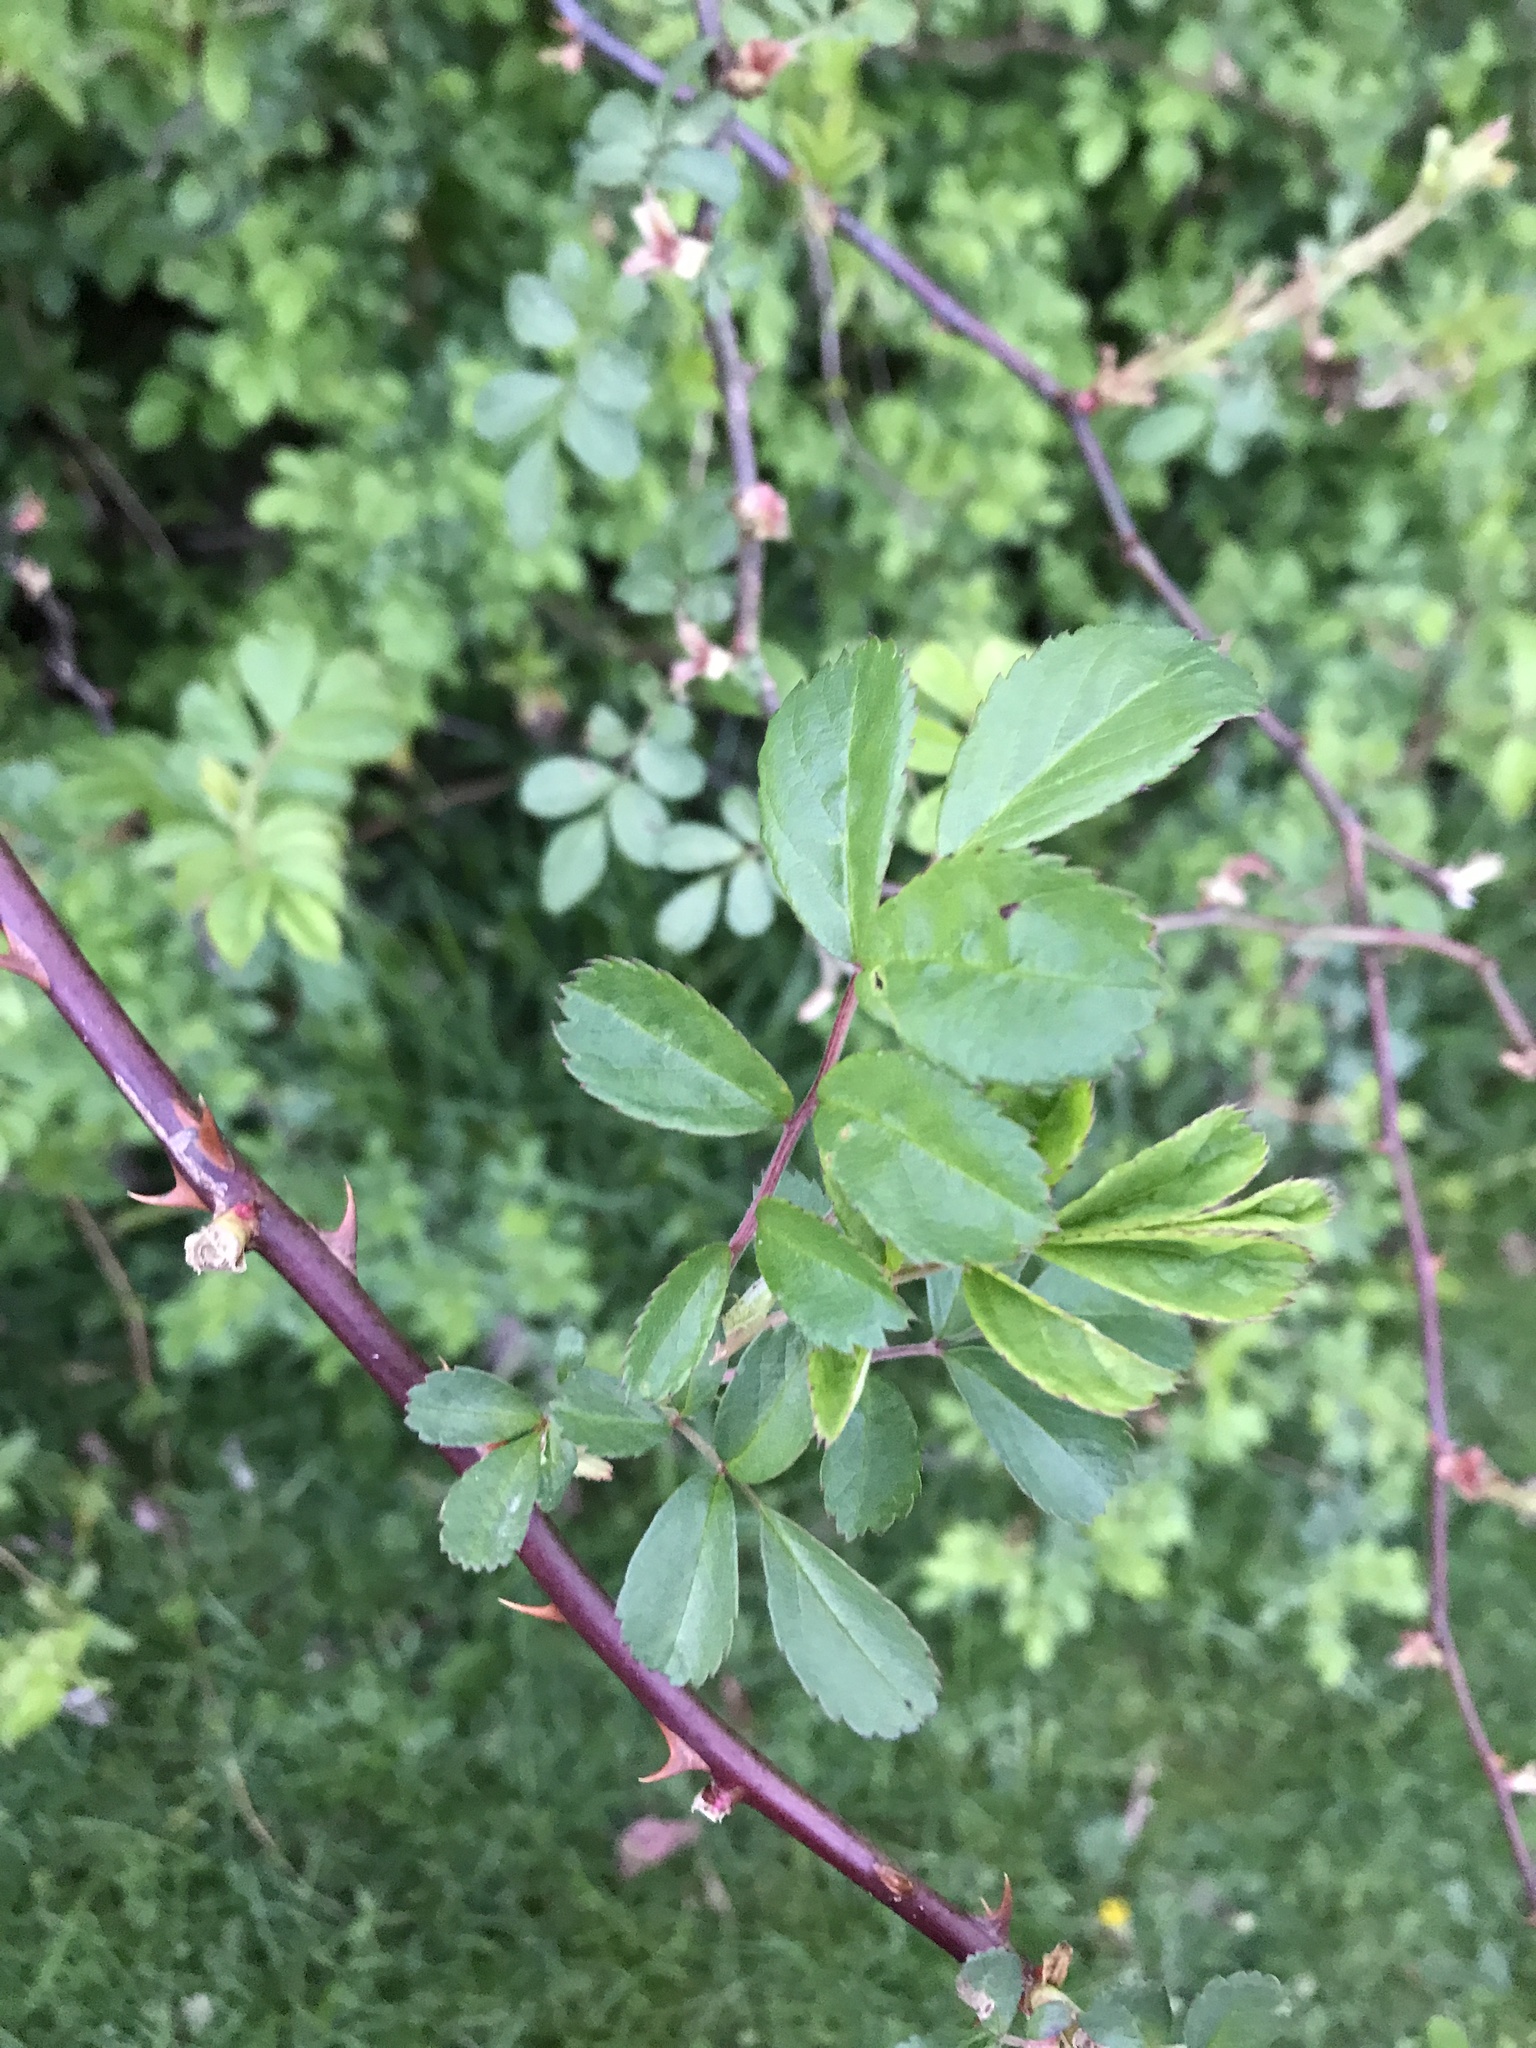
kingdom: Plantae
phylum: Tracheophyta
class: Magnoliopsida
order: Rosales
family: Rosaceae
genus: Rosa
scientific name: Rosa multiflora
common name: Multiflora rose
